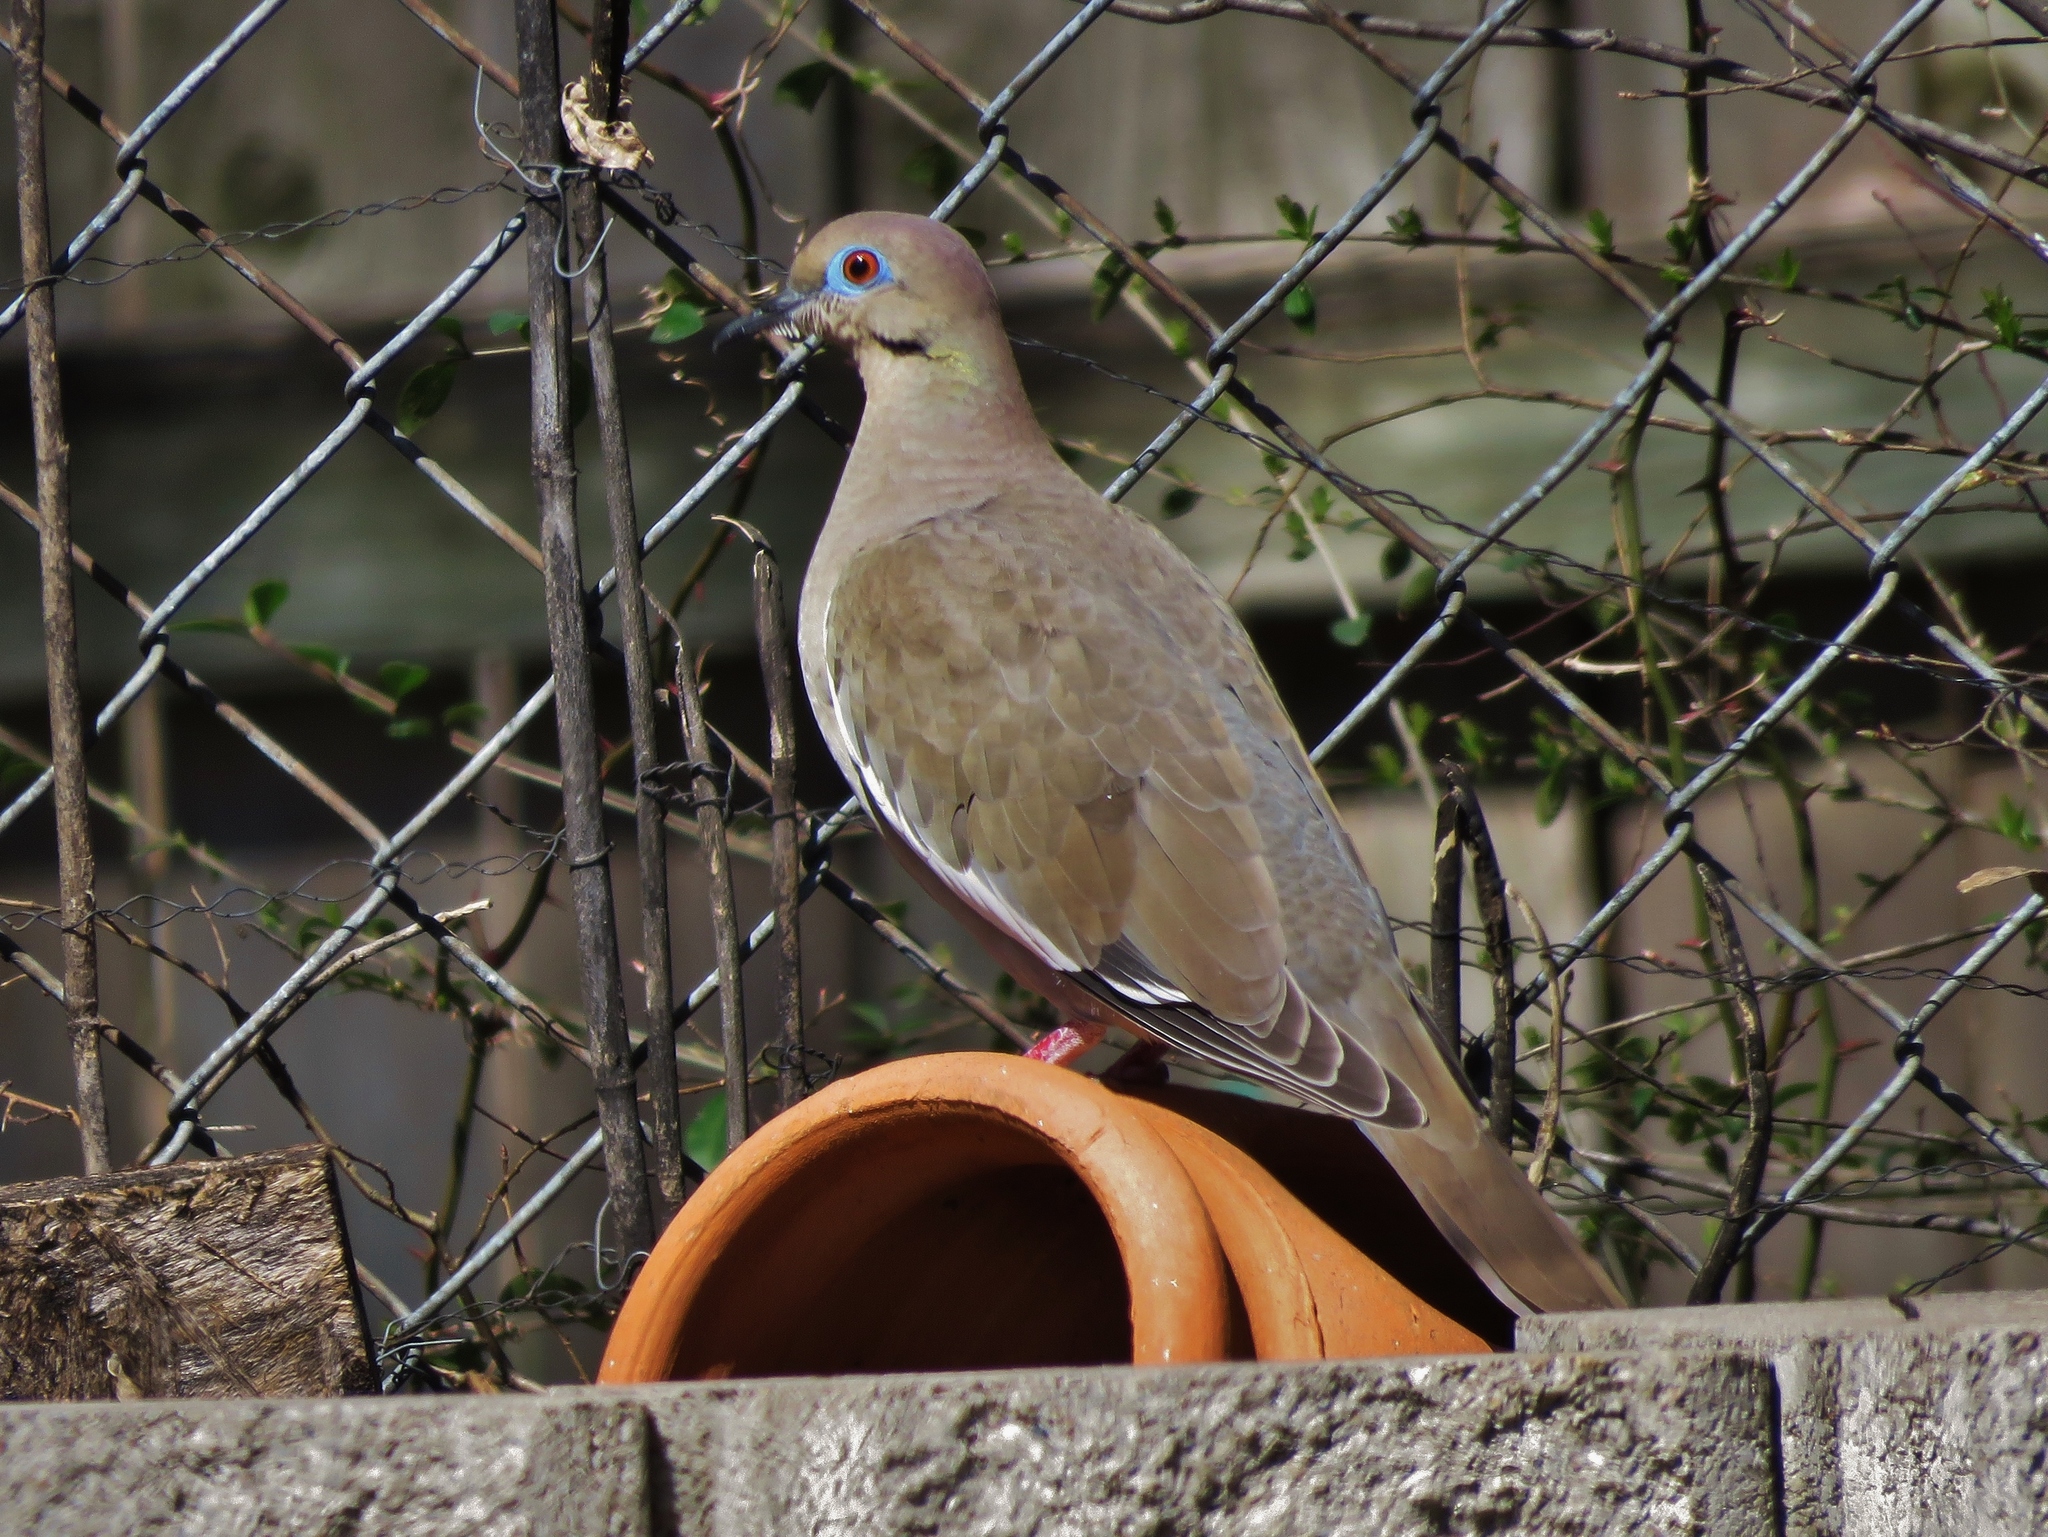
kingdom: Animalia
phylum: Chordata
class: Aves
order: Columbiformes
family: Columbidae
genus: Zenaida
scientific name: Zenaida asiatica
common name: White-winged dove
